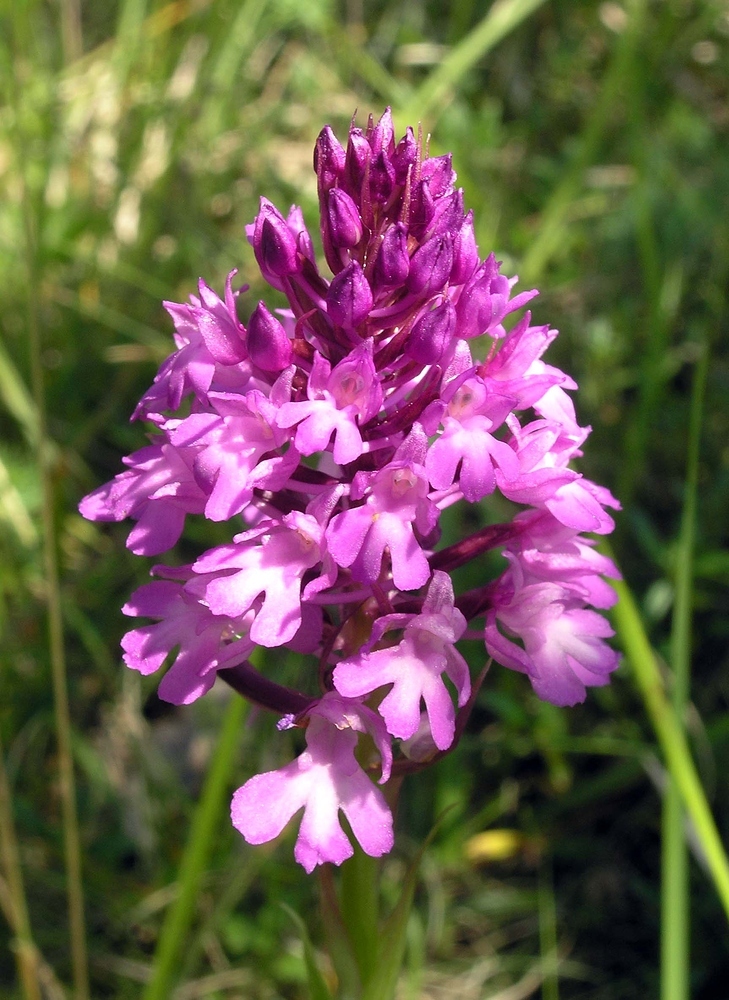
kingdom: Plantae
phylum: Tracheophyta
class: Liliopsida
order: Asparagales
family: Orchidaceae
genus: Anacamptis
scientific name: Anacamptis pyramidalis
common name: Pyramidal orchid
